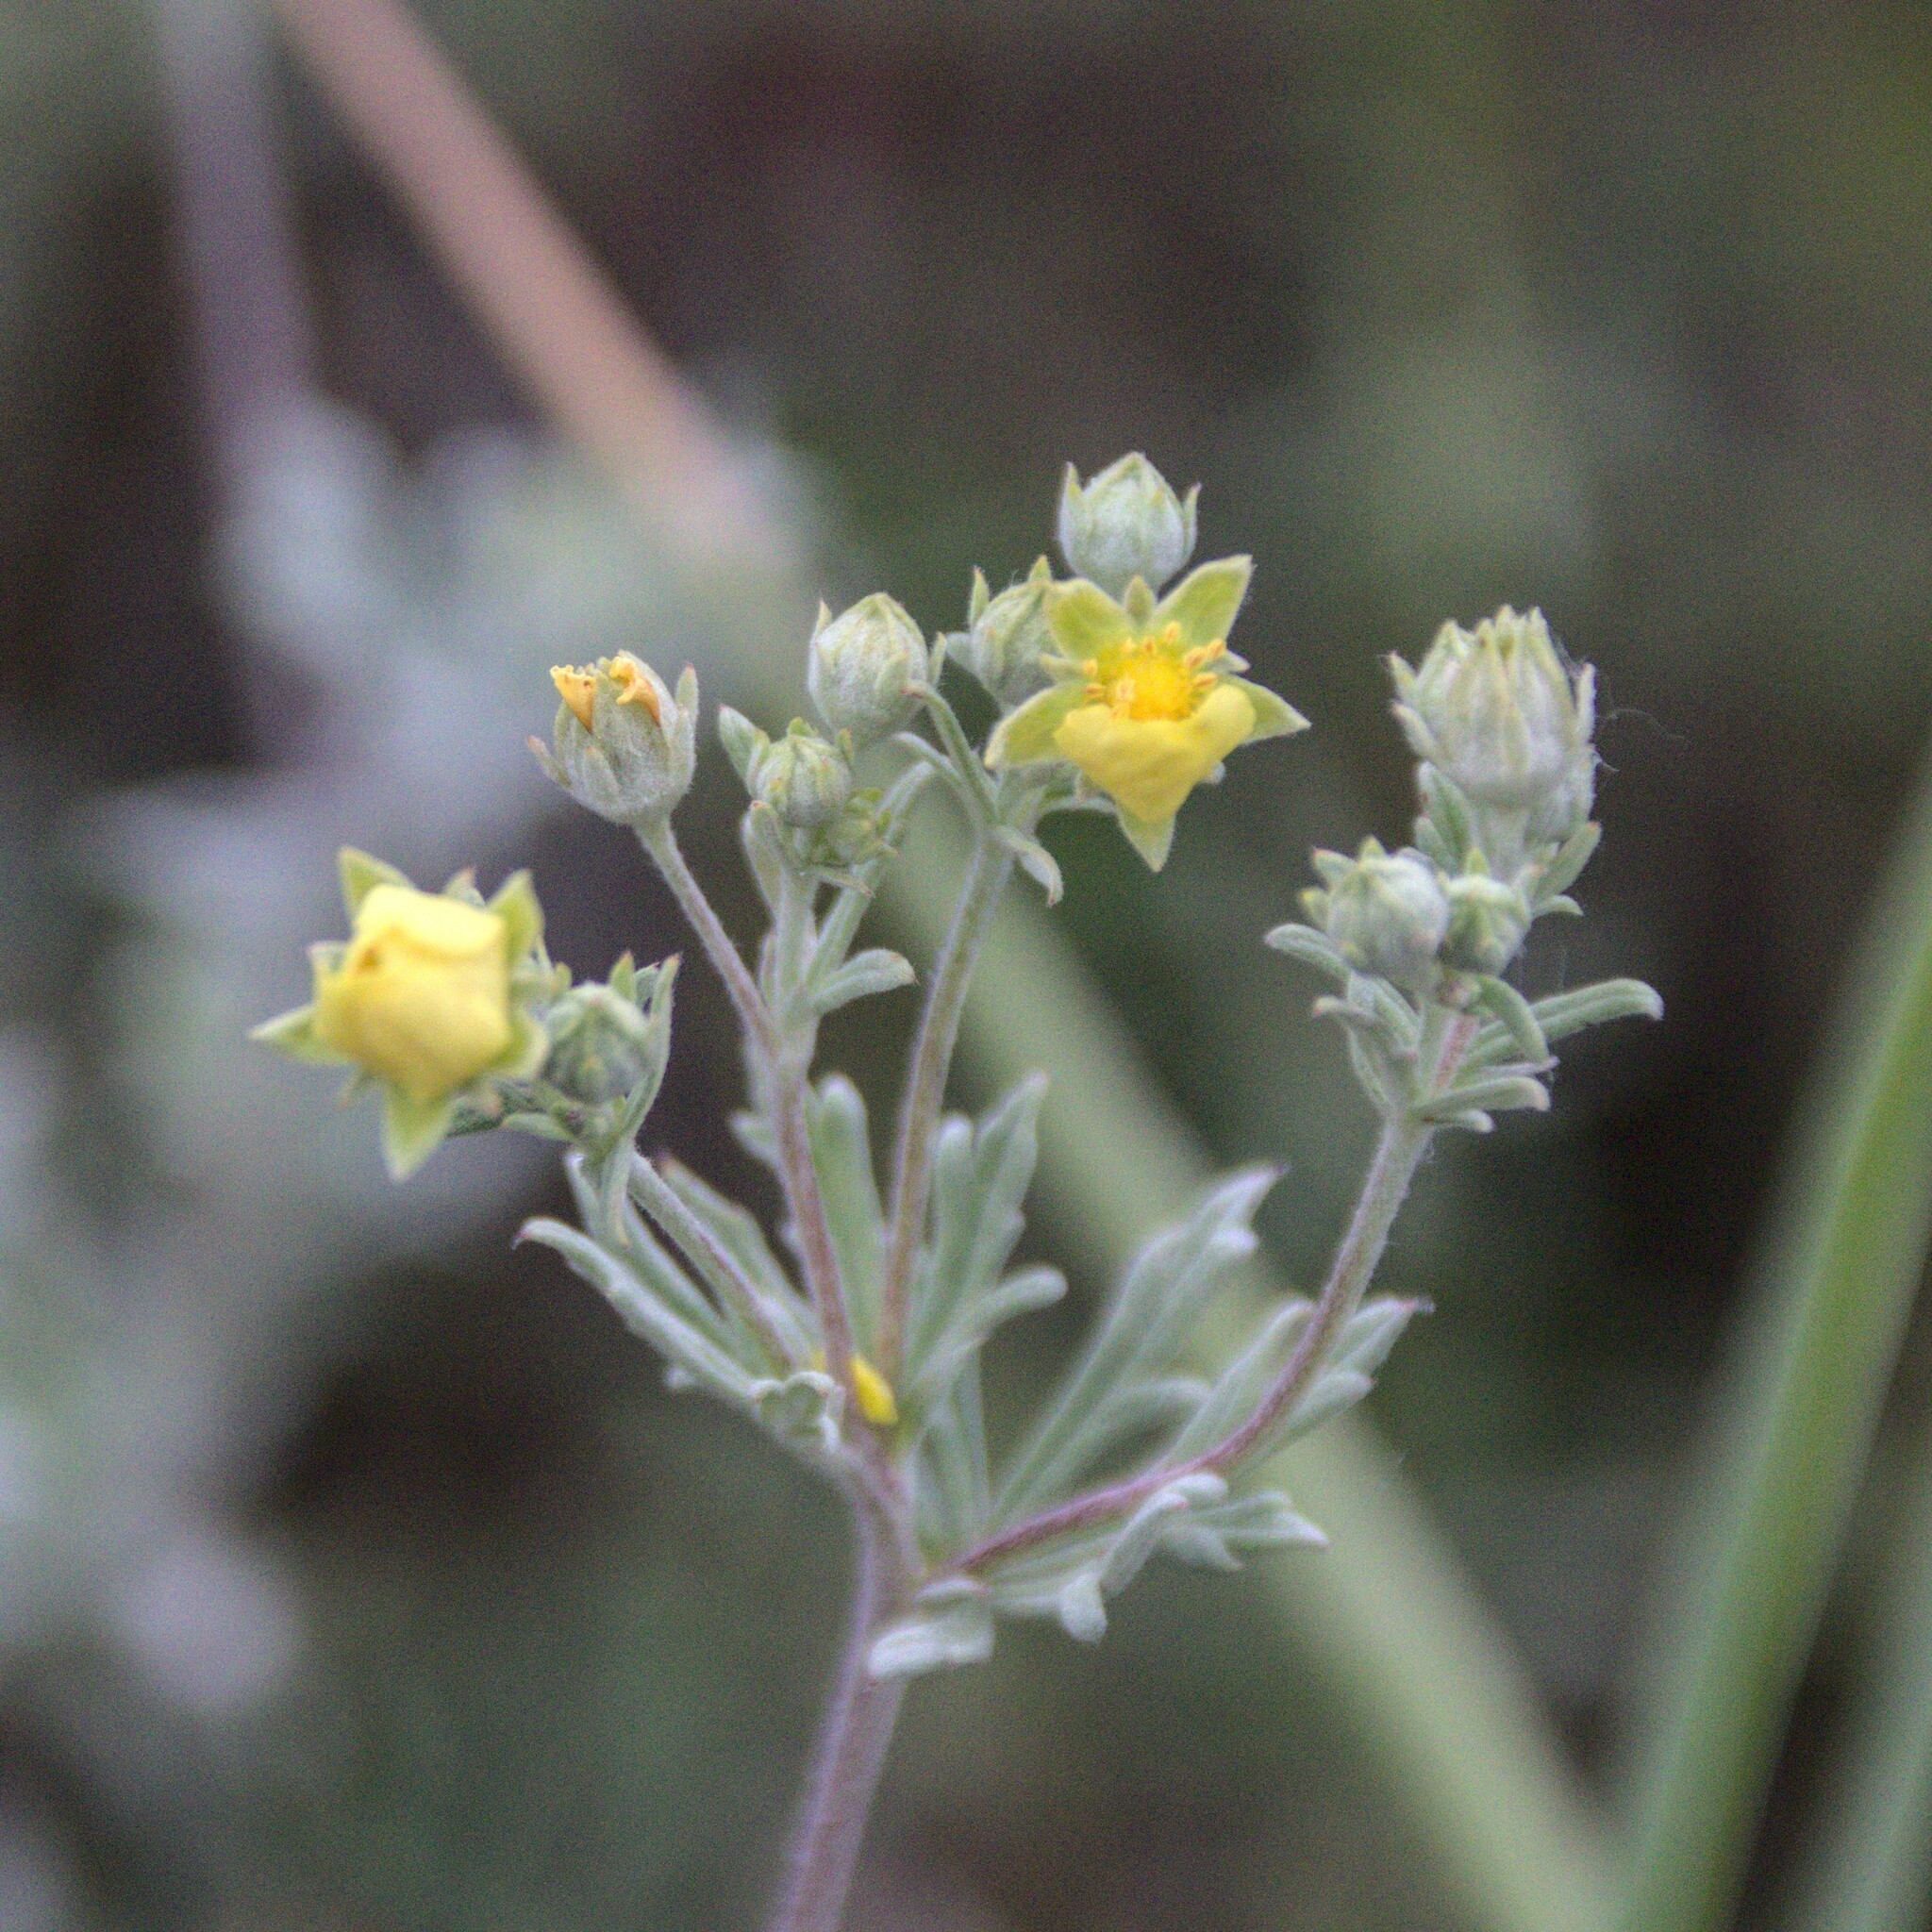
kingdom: Plantae
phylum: Tracheophyta
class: Magnoliopsida
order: Rosales
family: Rosaceae
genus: Potentilla
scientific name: Potentilla argentea
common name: Hoary cinquefoil
